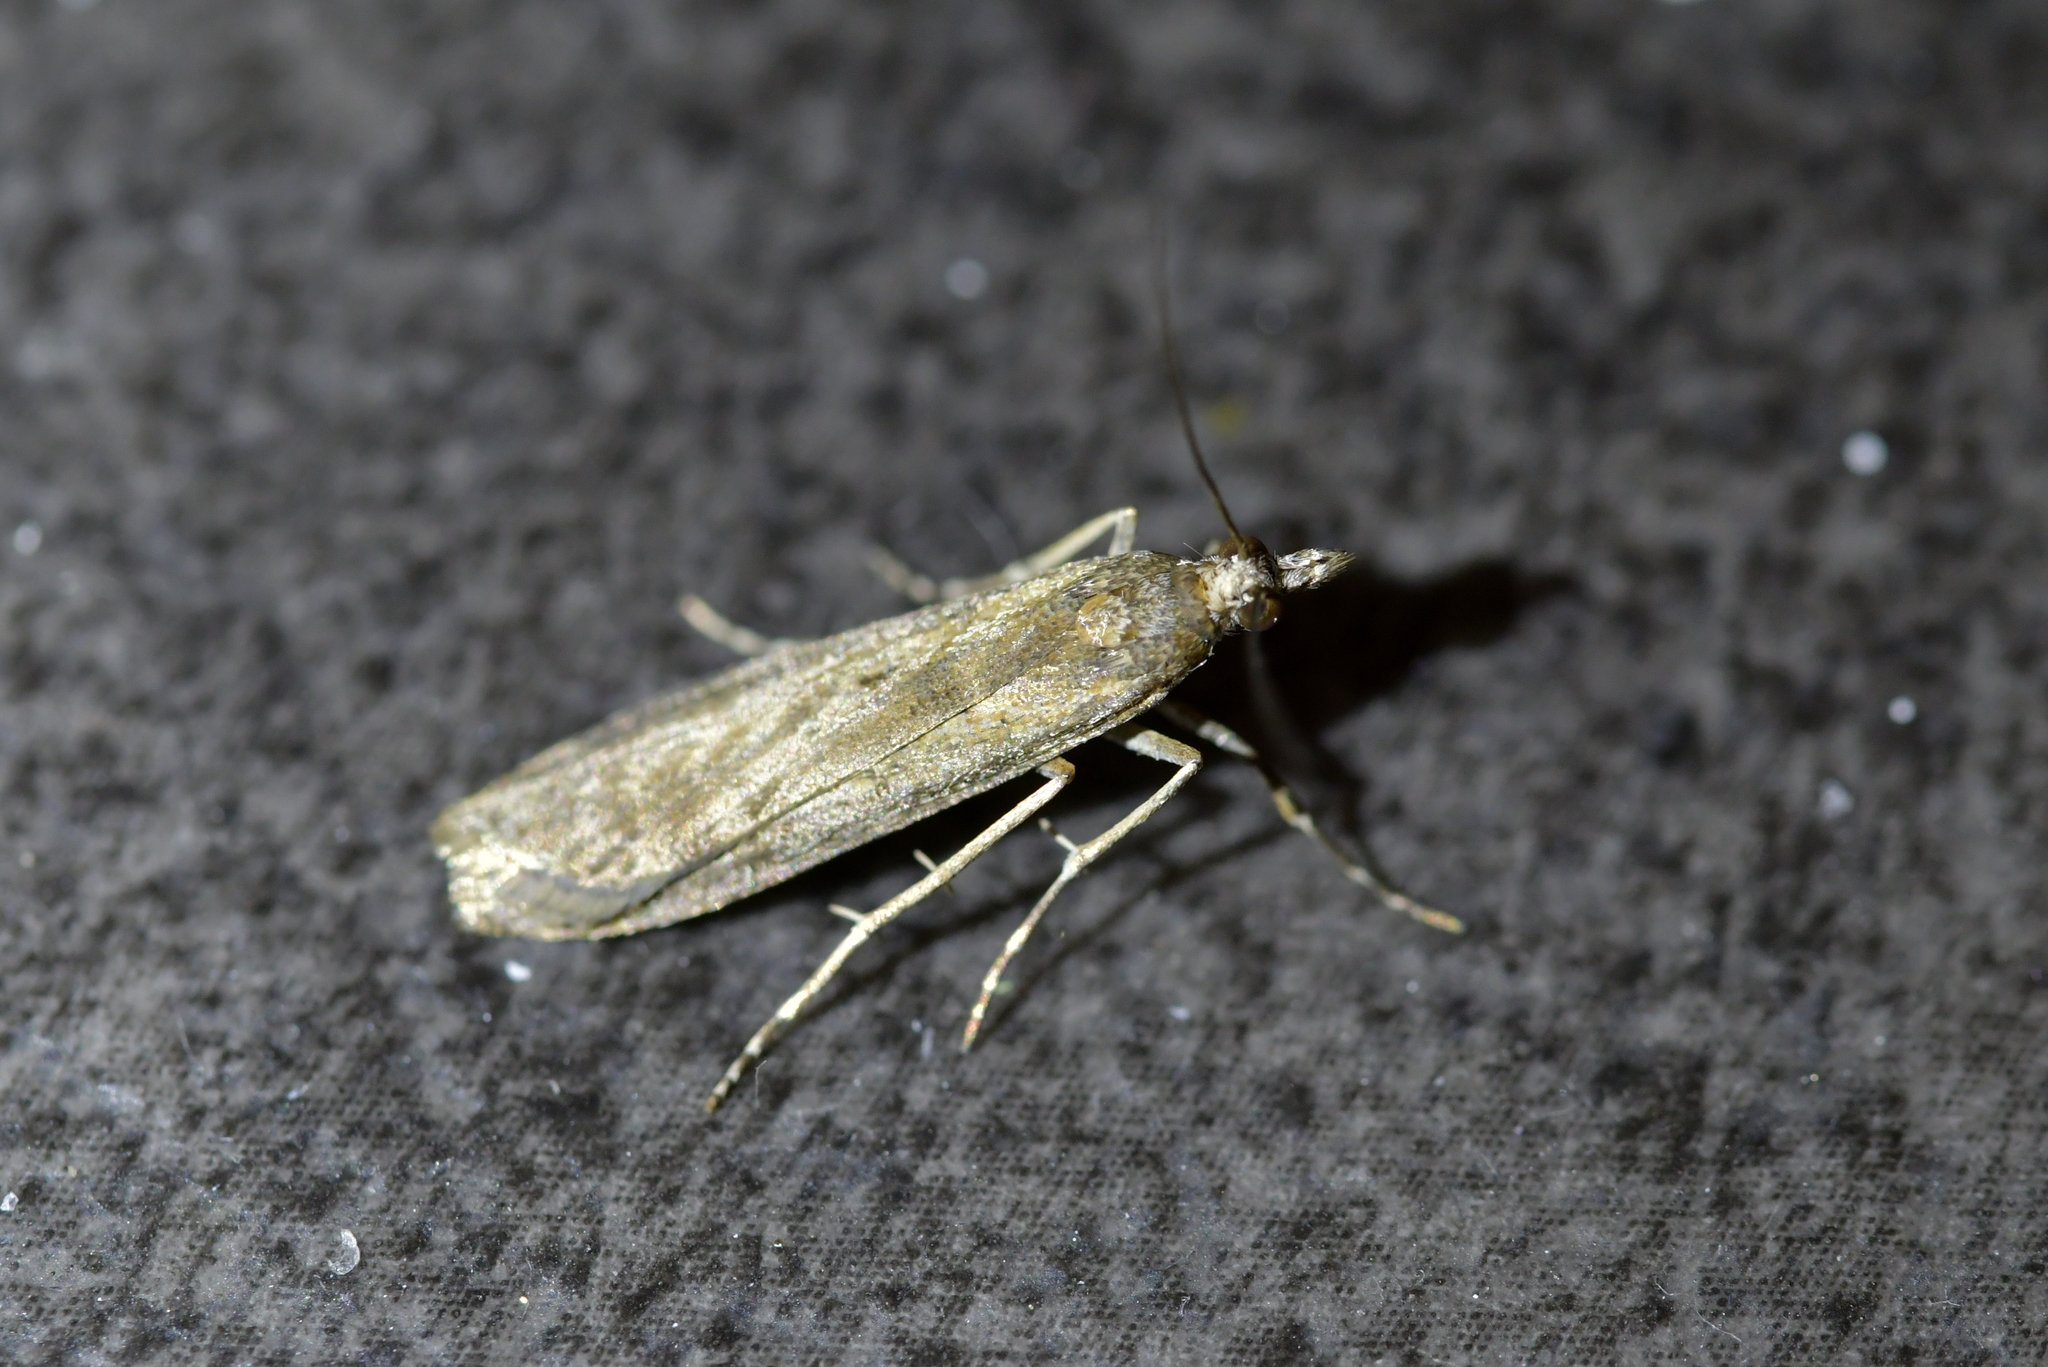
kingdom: Animalia
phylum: Arthropoda
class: Insecta
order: Lepidoptera
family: Crambidae
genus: Eudonia
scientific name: Eudonia leptalea
